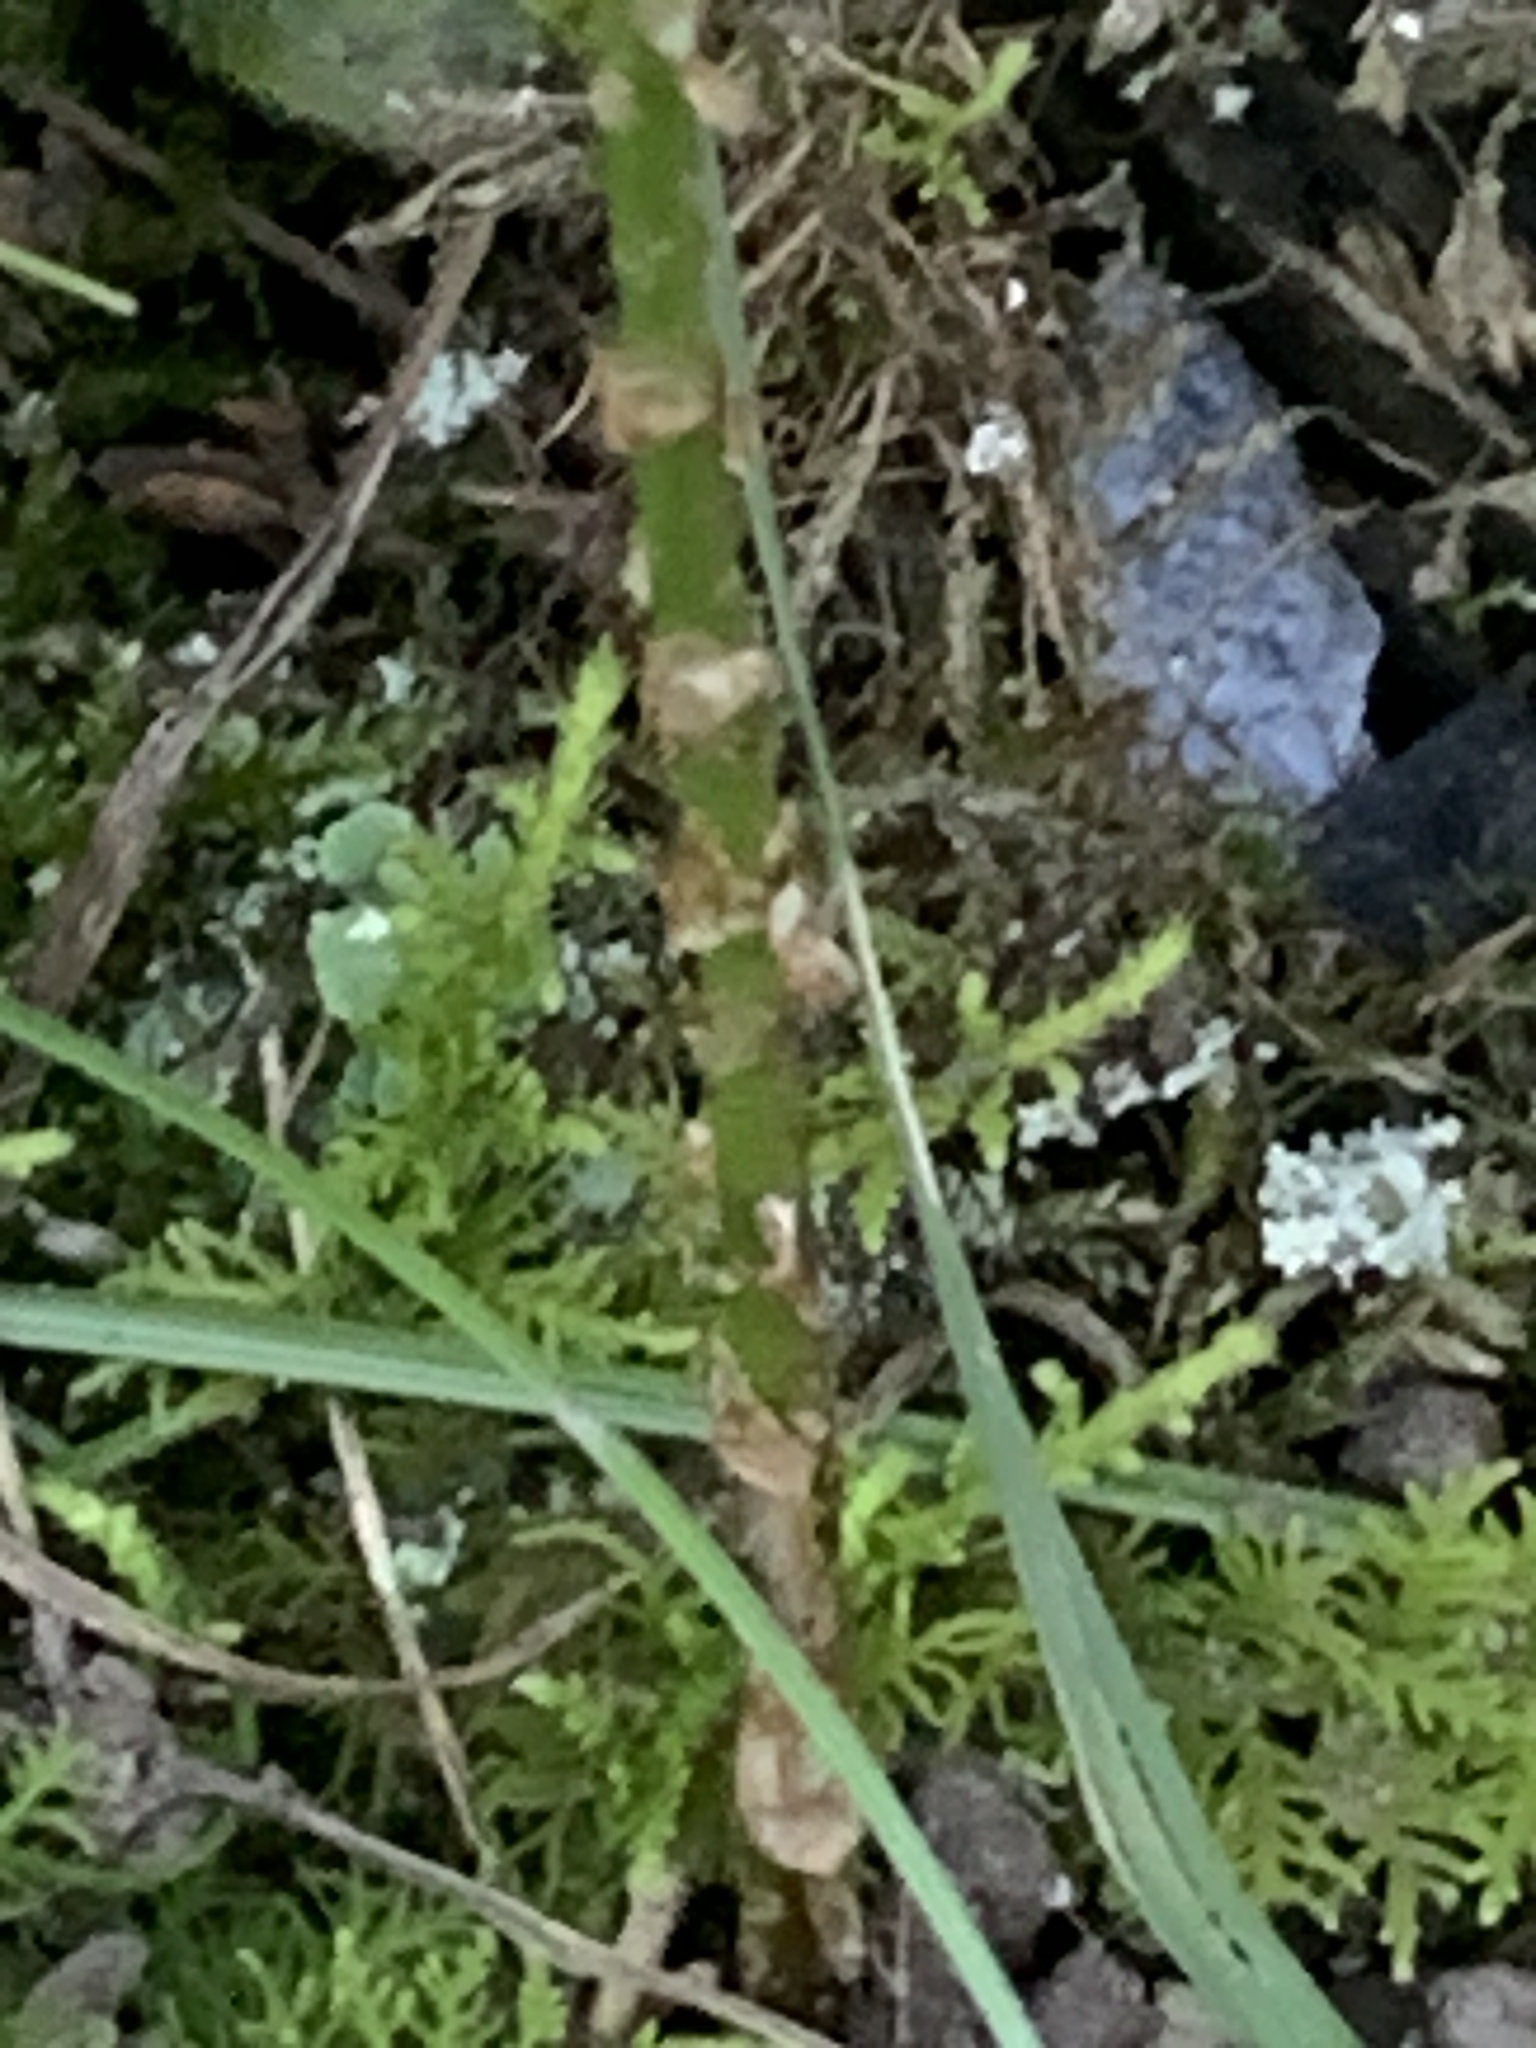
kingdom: Plantae
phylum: Tracheophyta
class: Polypodiopsida
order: Polypodiales
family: Dryopteridaceae
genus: Dryopteris
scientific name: Dryopteris carthusiana
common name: Narrow buckler-fern
